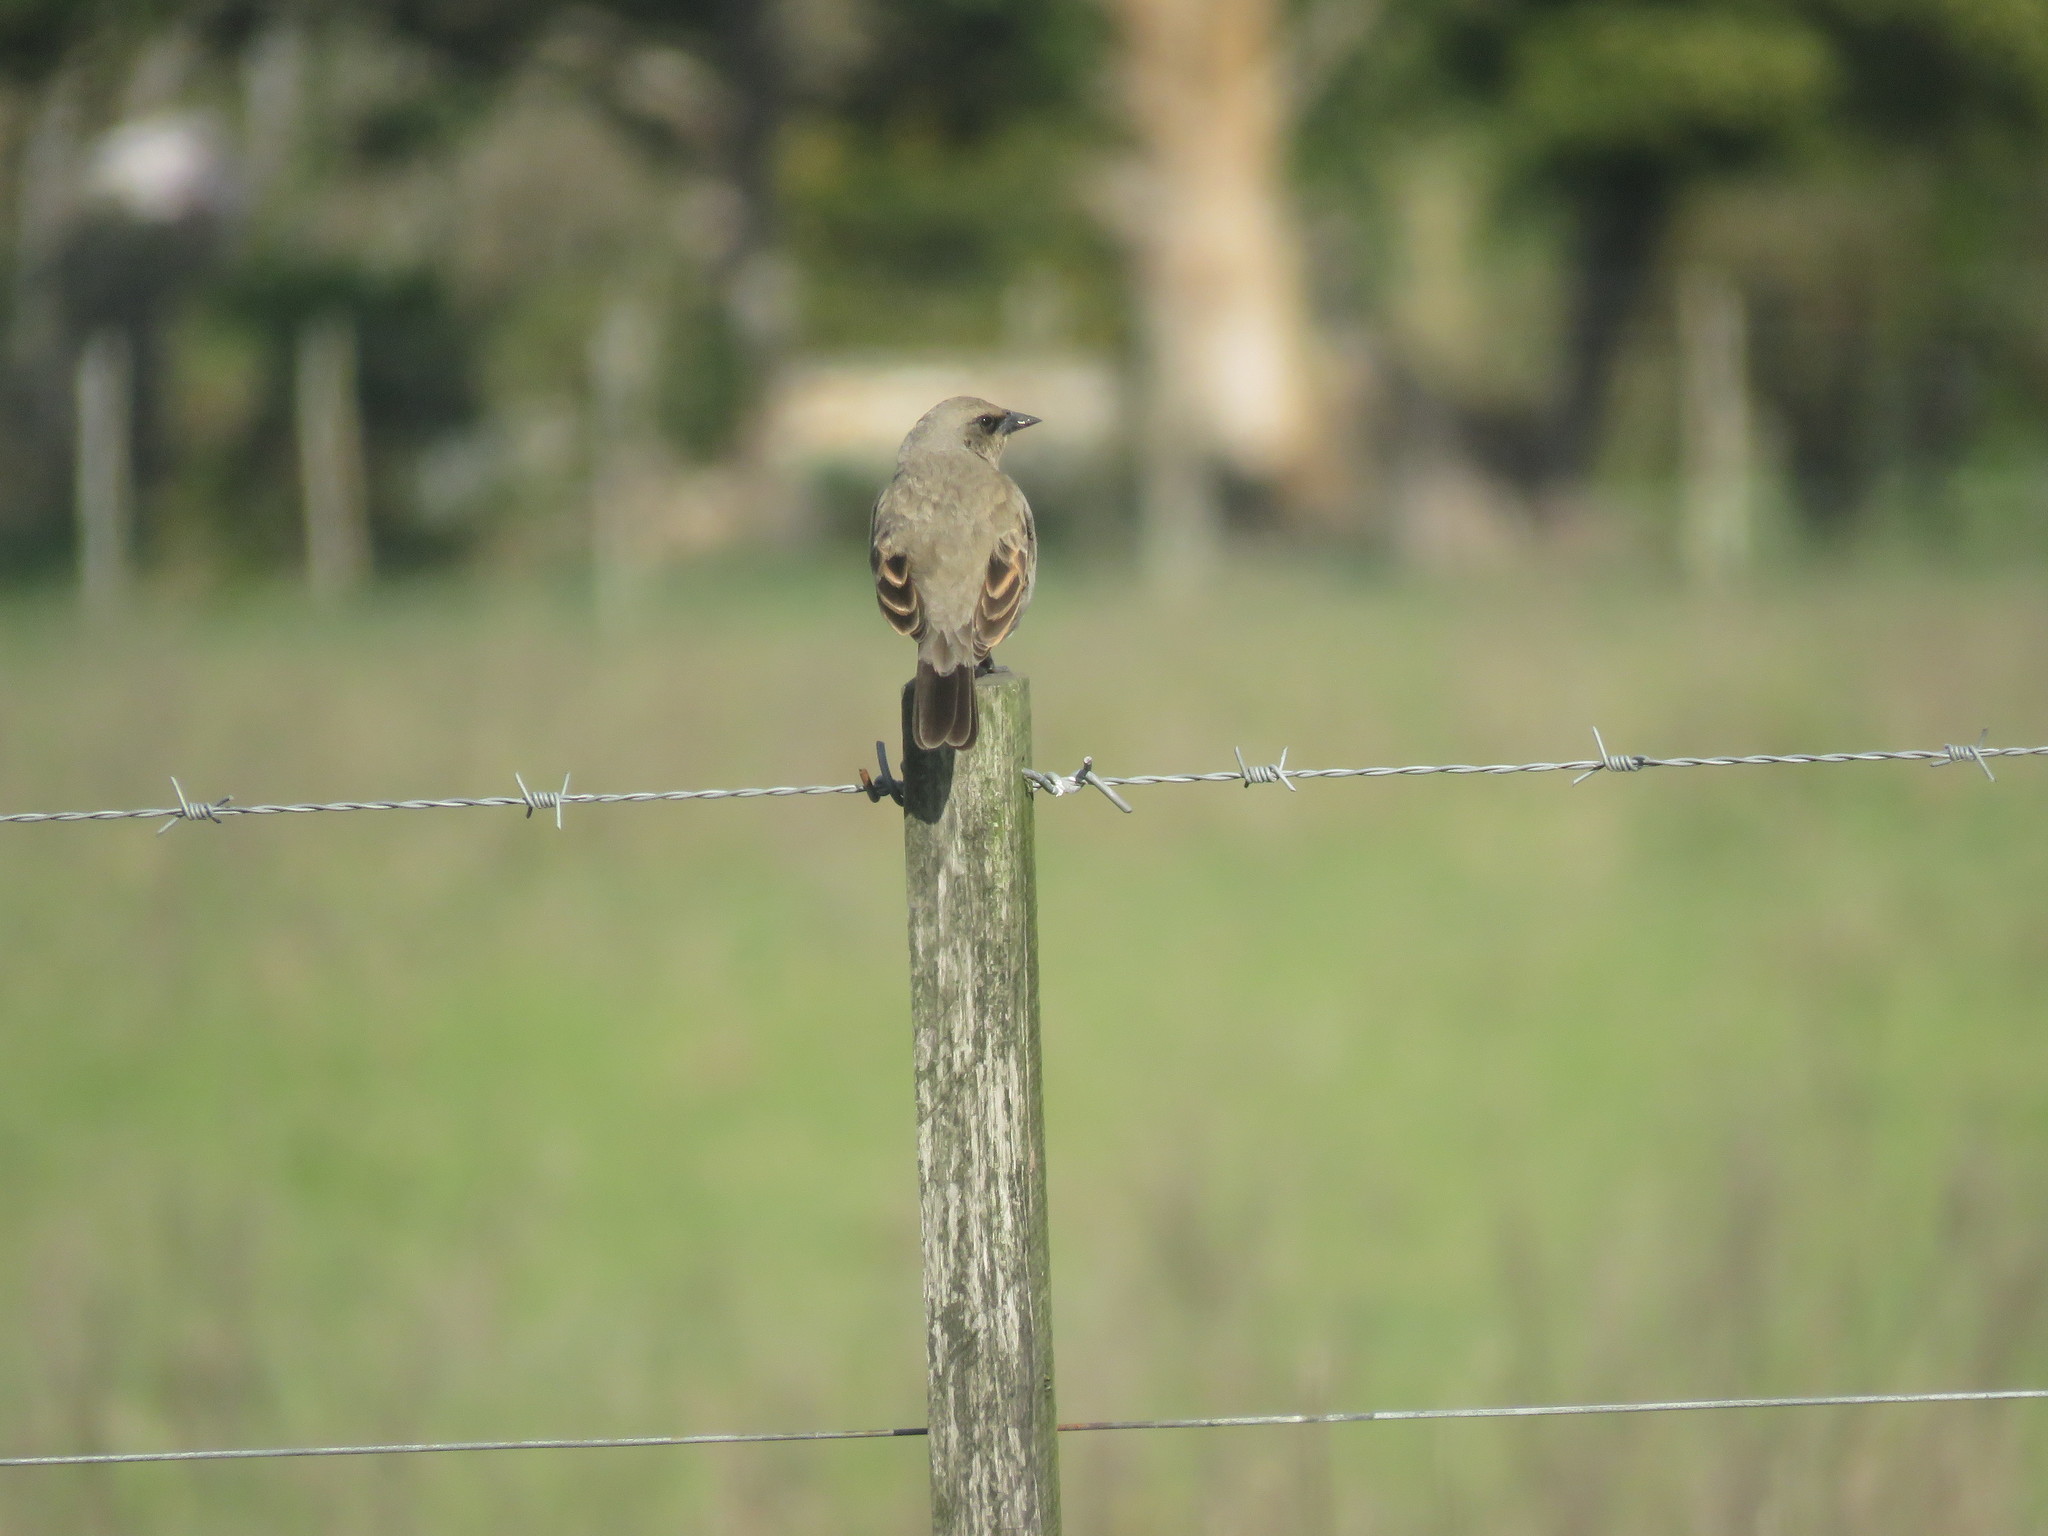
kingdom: Animalia
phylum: Chordata
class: Aves
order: Passeriformes
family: Icteridae
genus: Agelaioides
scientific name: Agelaioides badius
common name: Baywing
